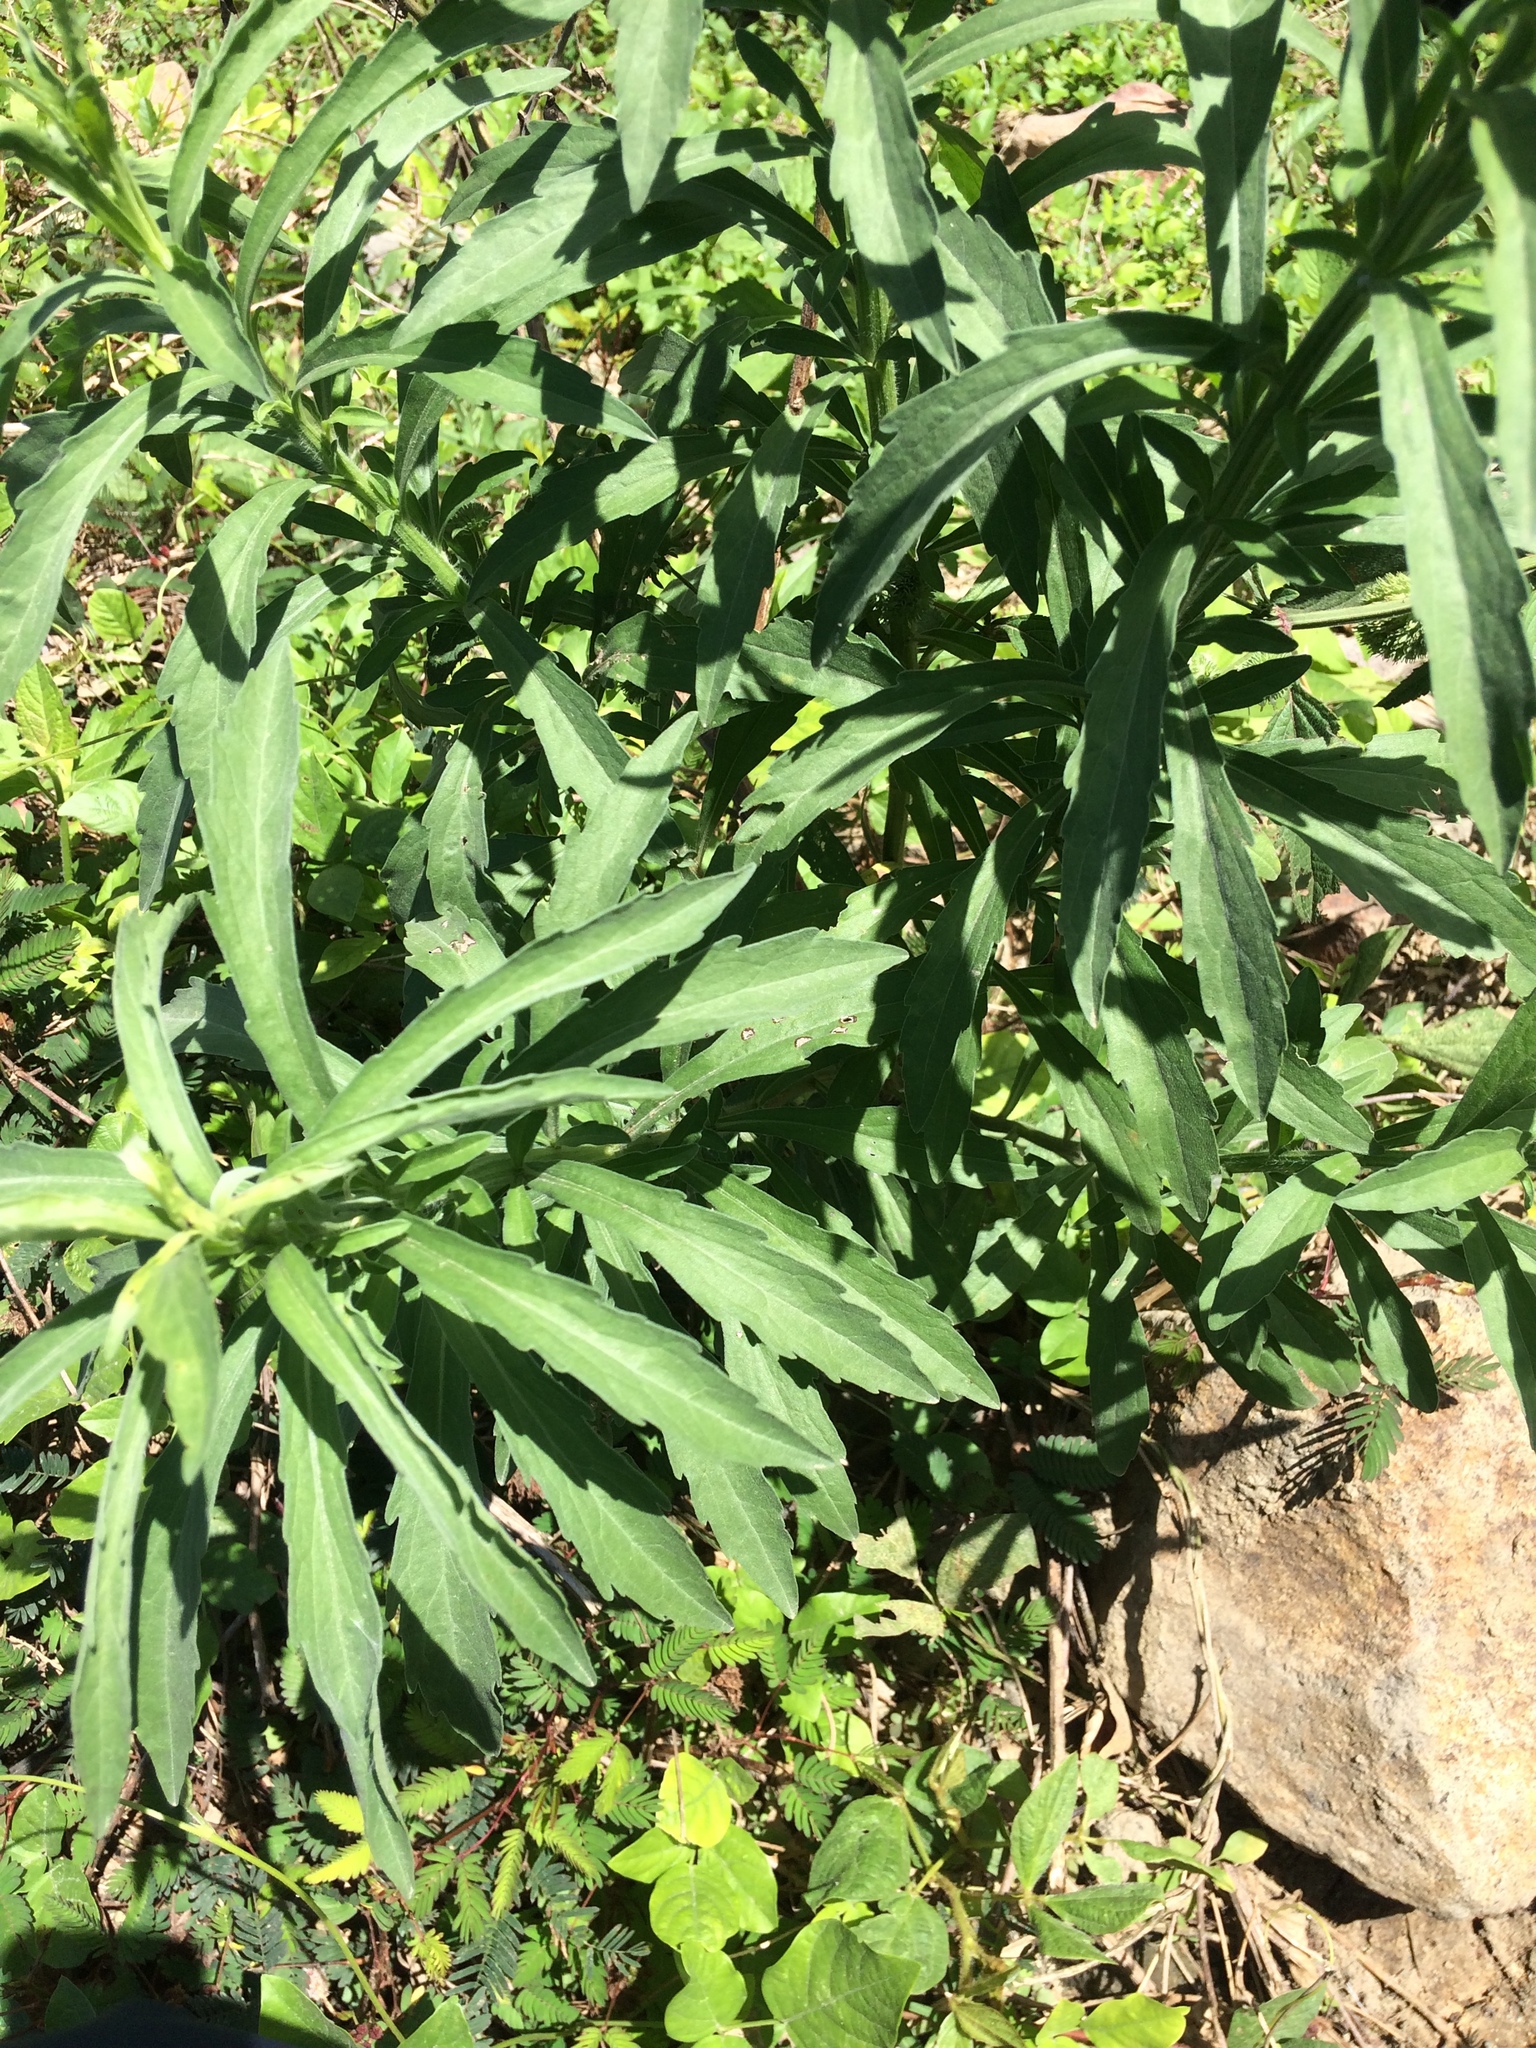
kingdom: Plantae
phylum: Tracheophyta
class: Magnoliopsida
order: Asterales
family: Campanulaceae
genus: Hippobroma
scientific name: Hippobroma longiflora
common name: Madamfate
